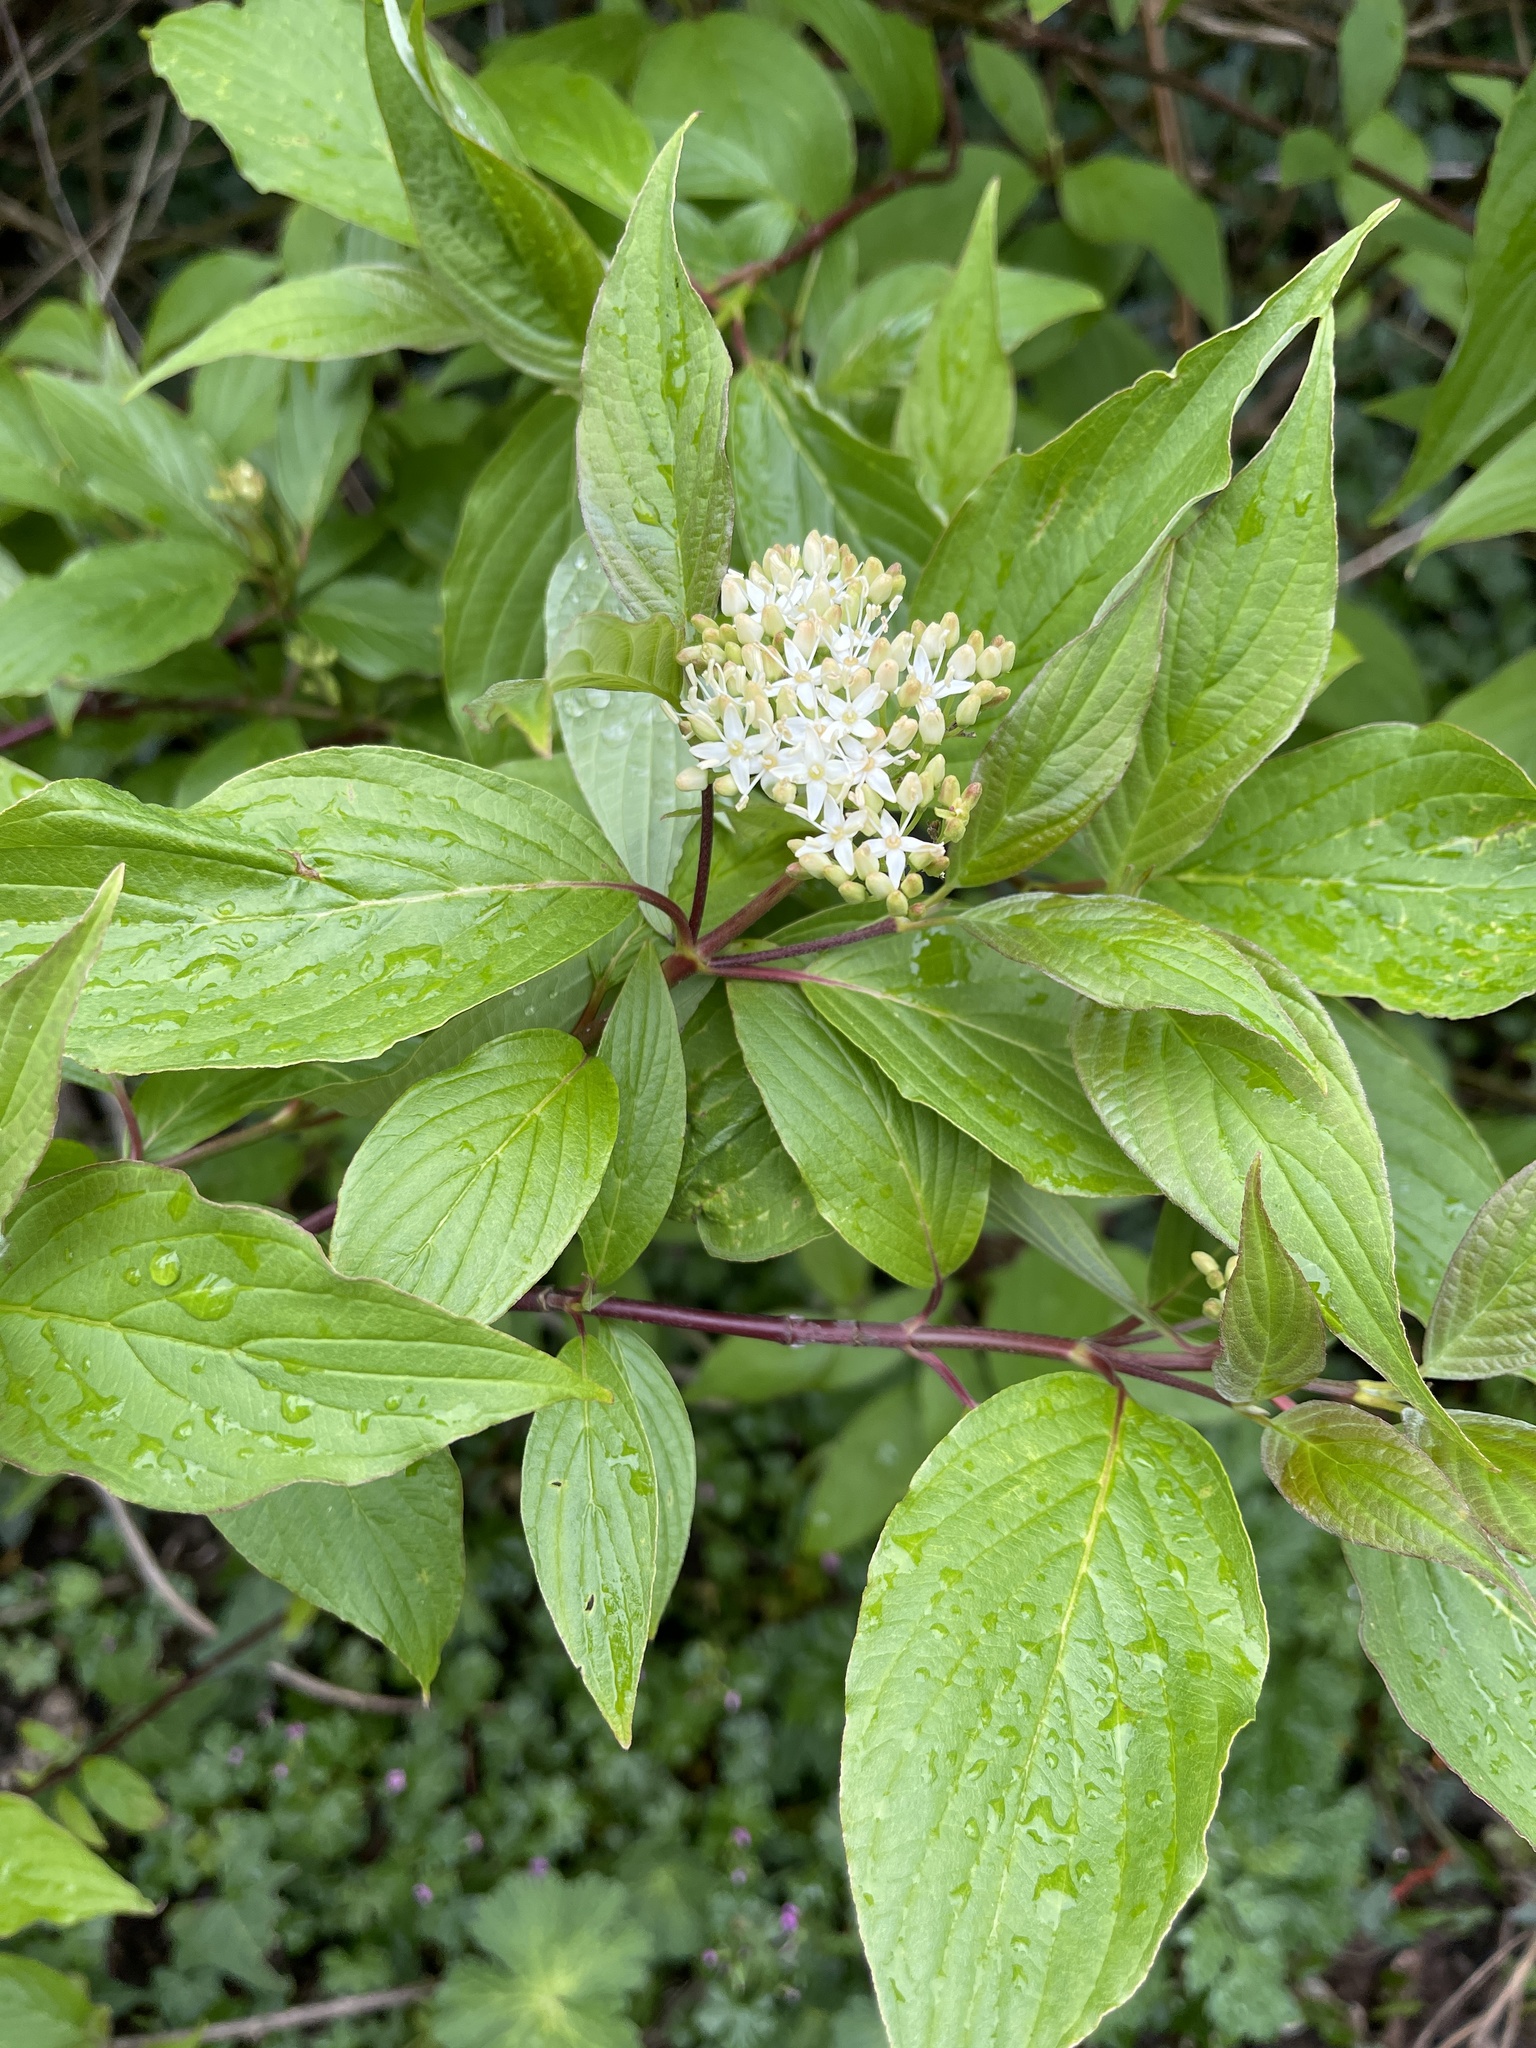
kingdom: Plantae
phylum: Tracheophyta
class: Magnoliopsida
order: Cornales
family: Cornaceae
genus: Cornus
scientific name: Cornus sanguinea
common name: Dogwood
